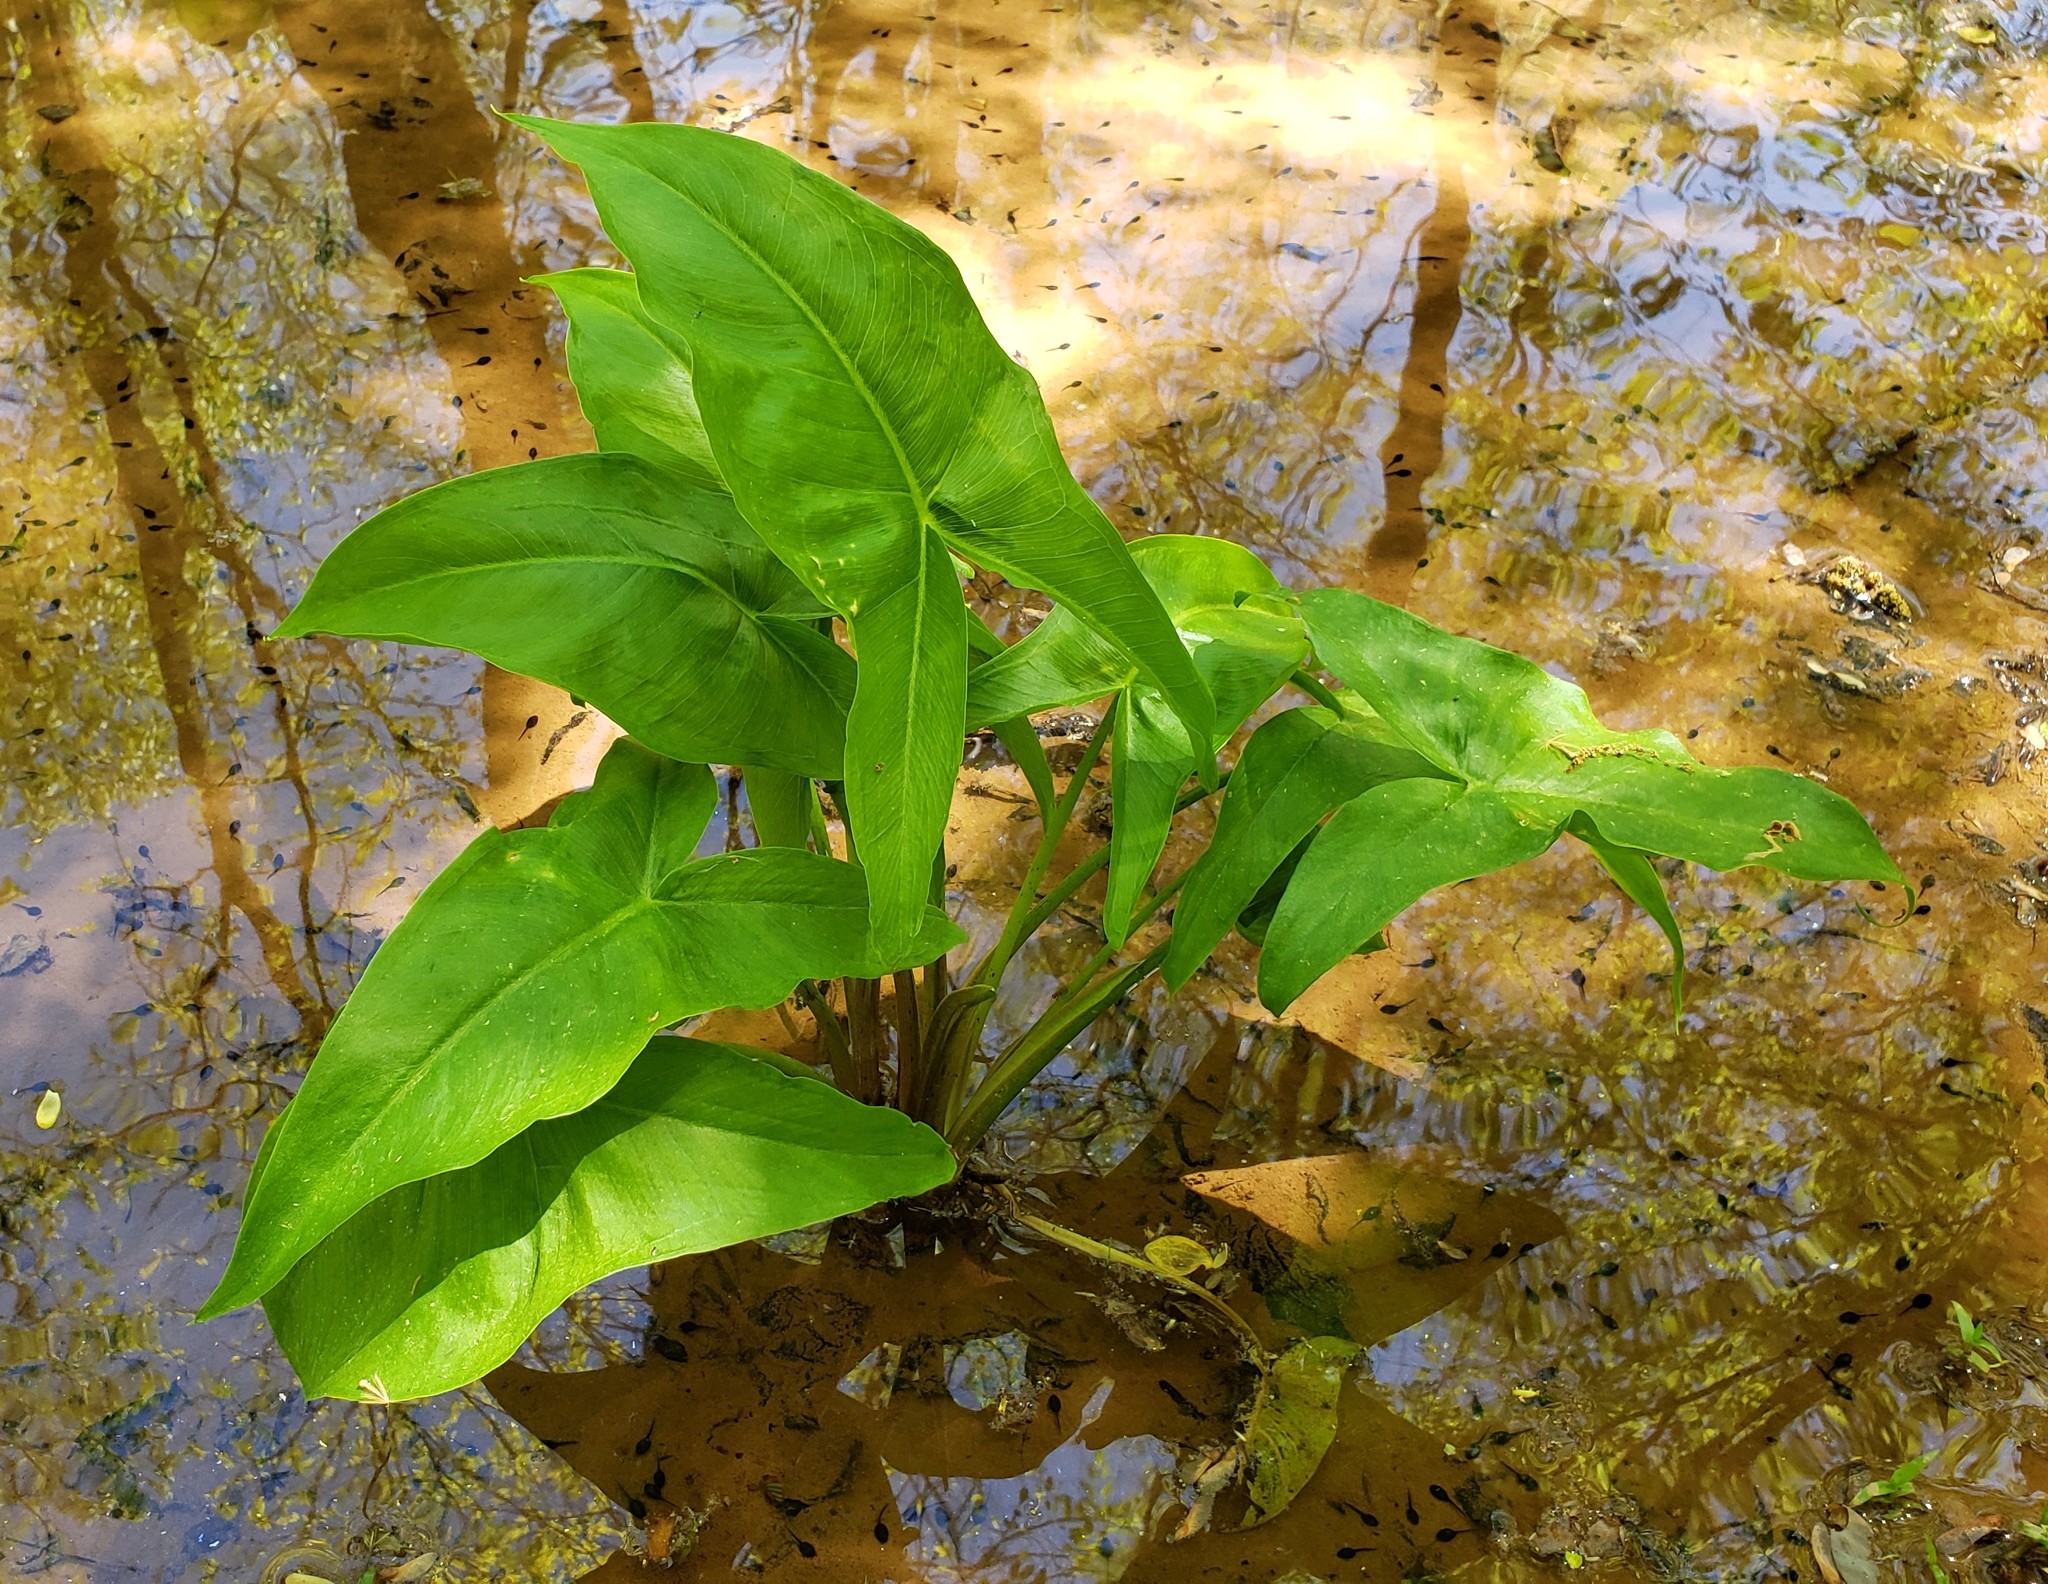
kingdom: Plantae
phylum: Tracheophyta
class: Liliopsida
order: Alismatales
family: Araceae
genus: Peltandra
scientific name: Peltandra virginica
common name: Arrow arum
